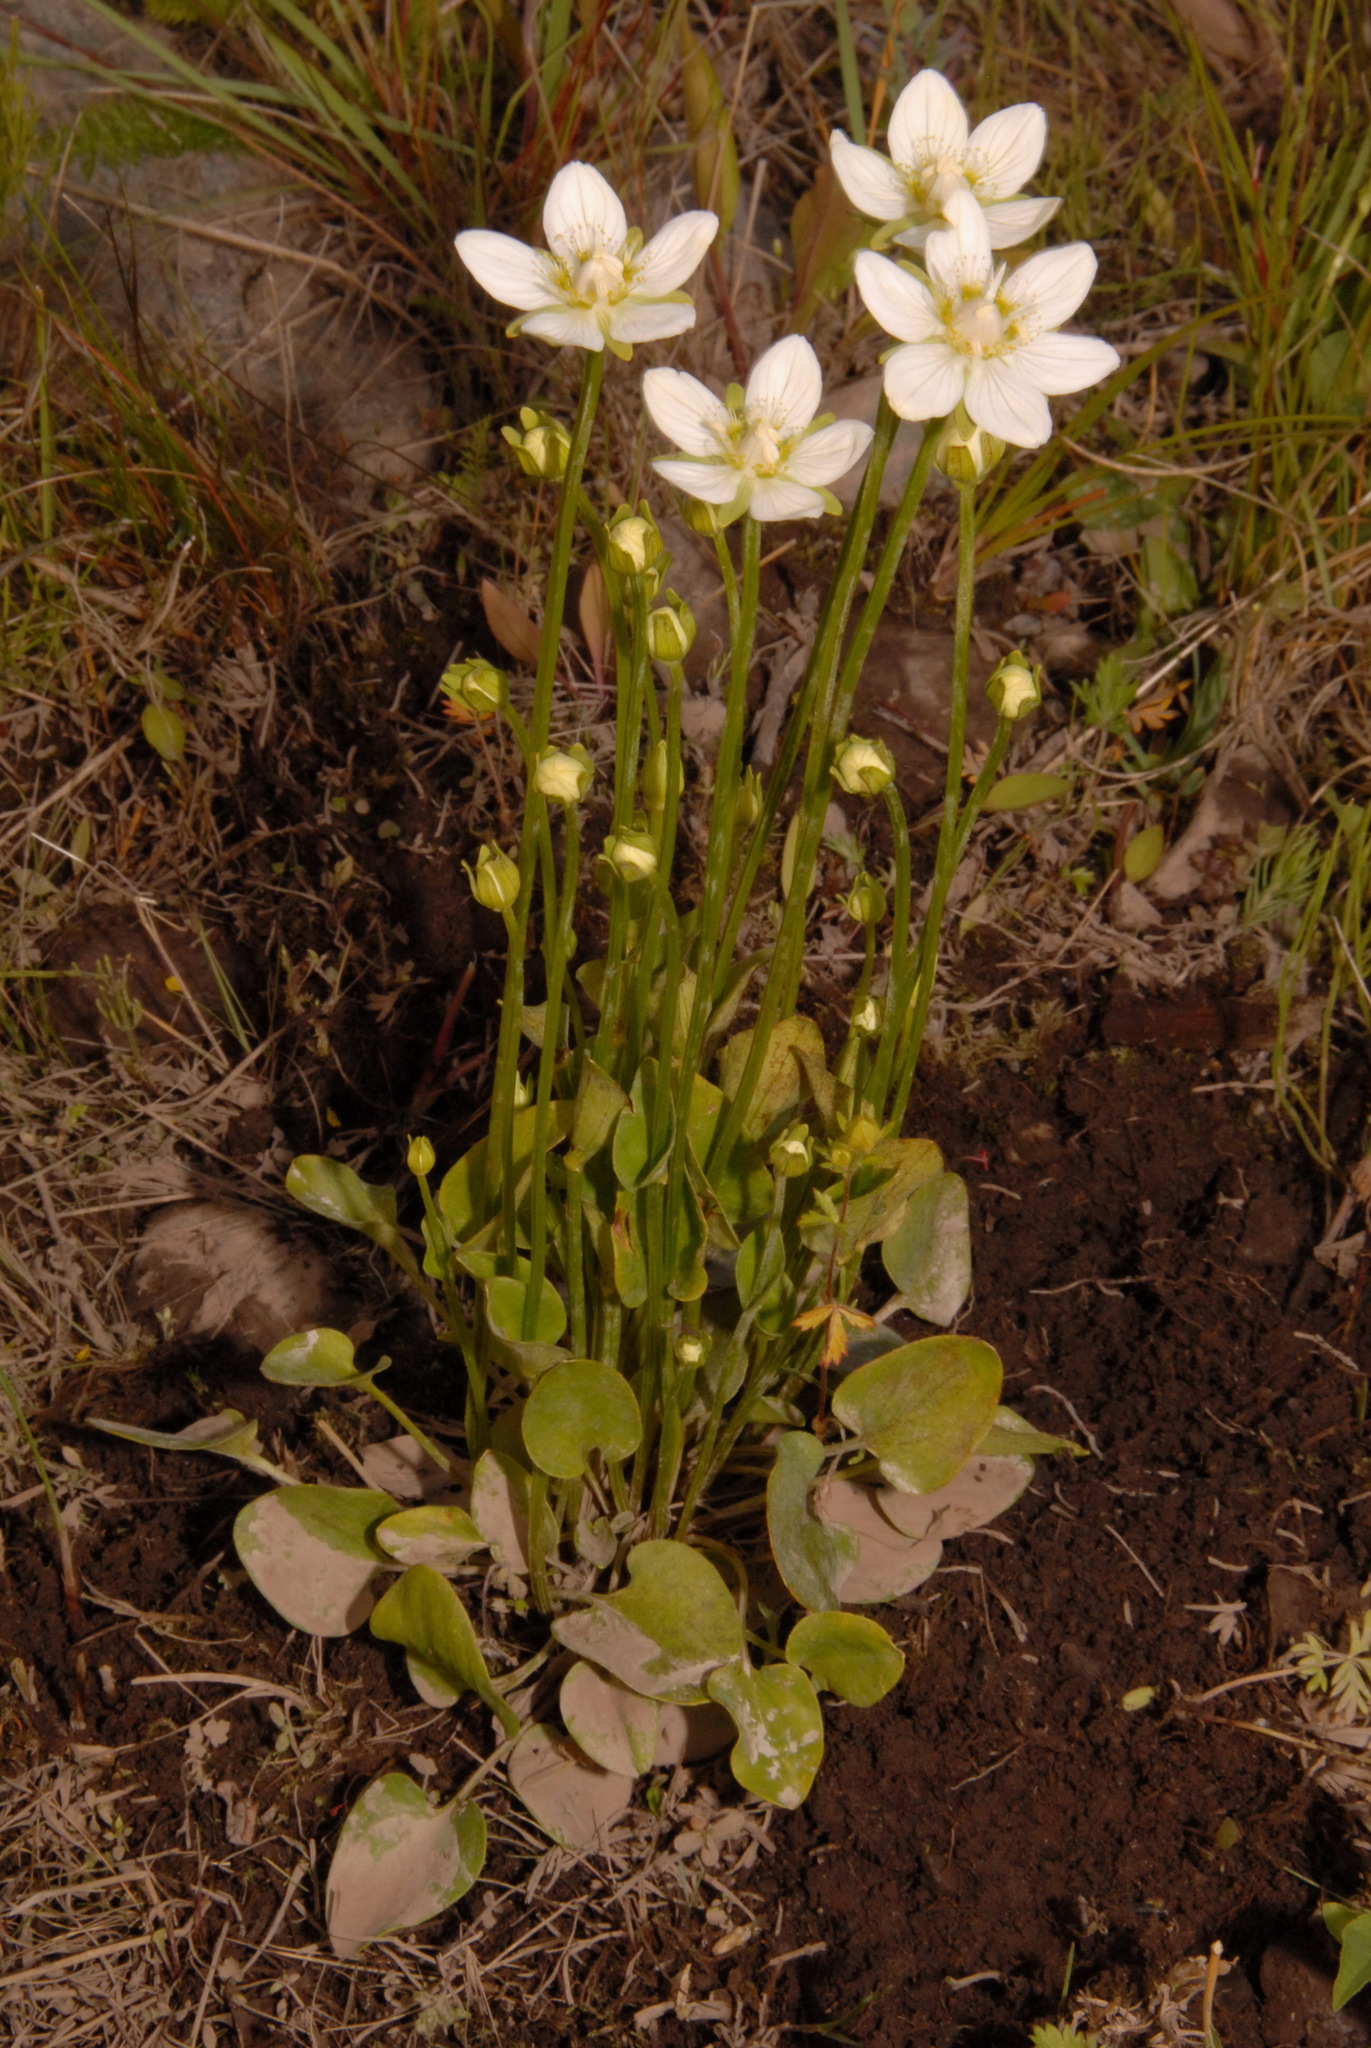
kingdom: Plantae
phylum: Tracheophyta
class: Magnoliopsida
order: Celastrales
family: Parnassiaceae
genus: Parnassia
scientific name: Parnassia palustris
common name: Grass-of-parnassus
